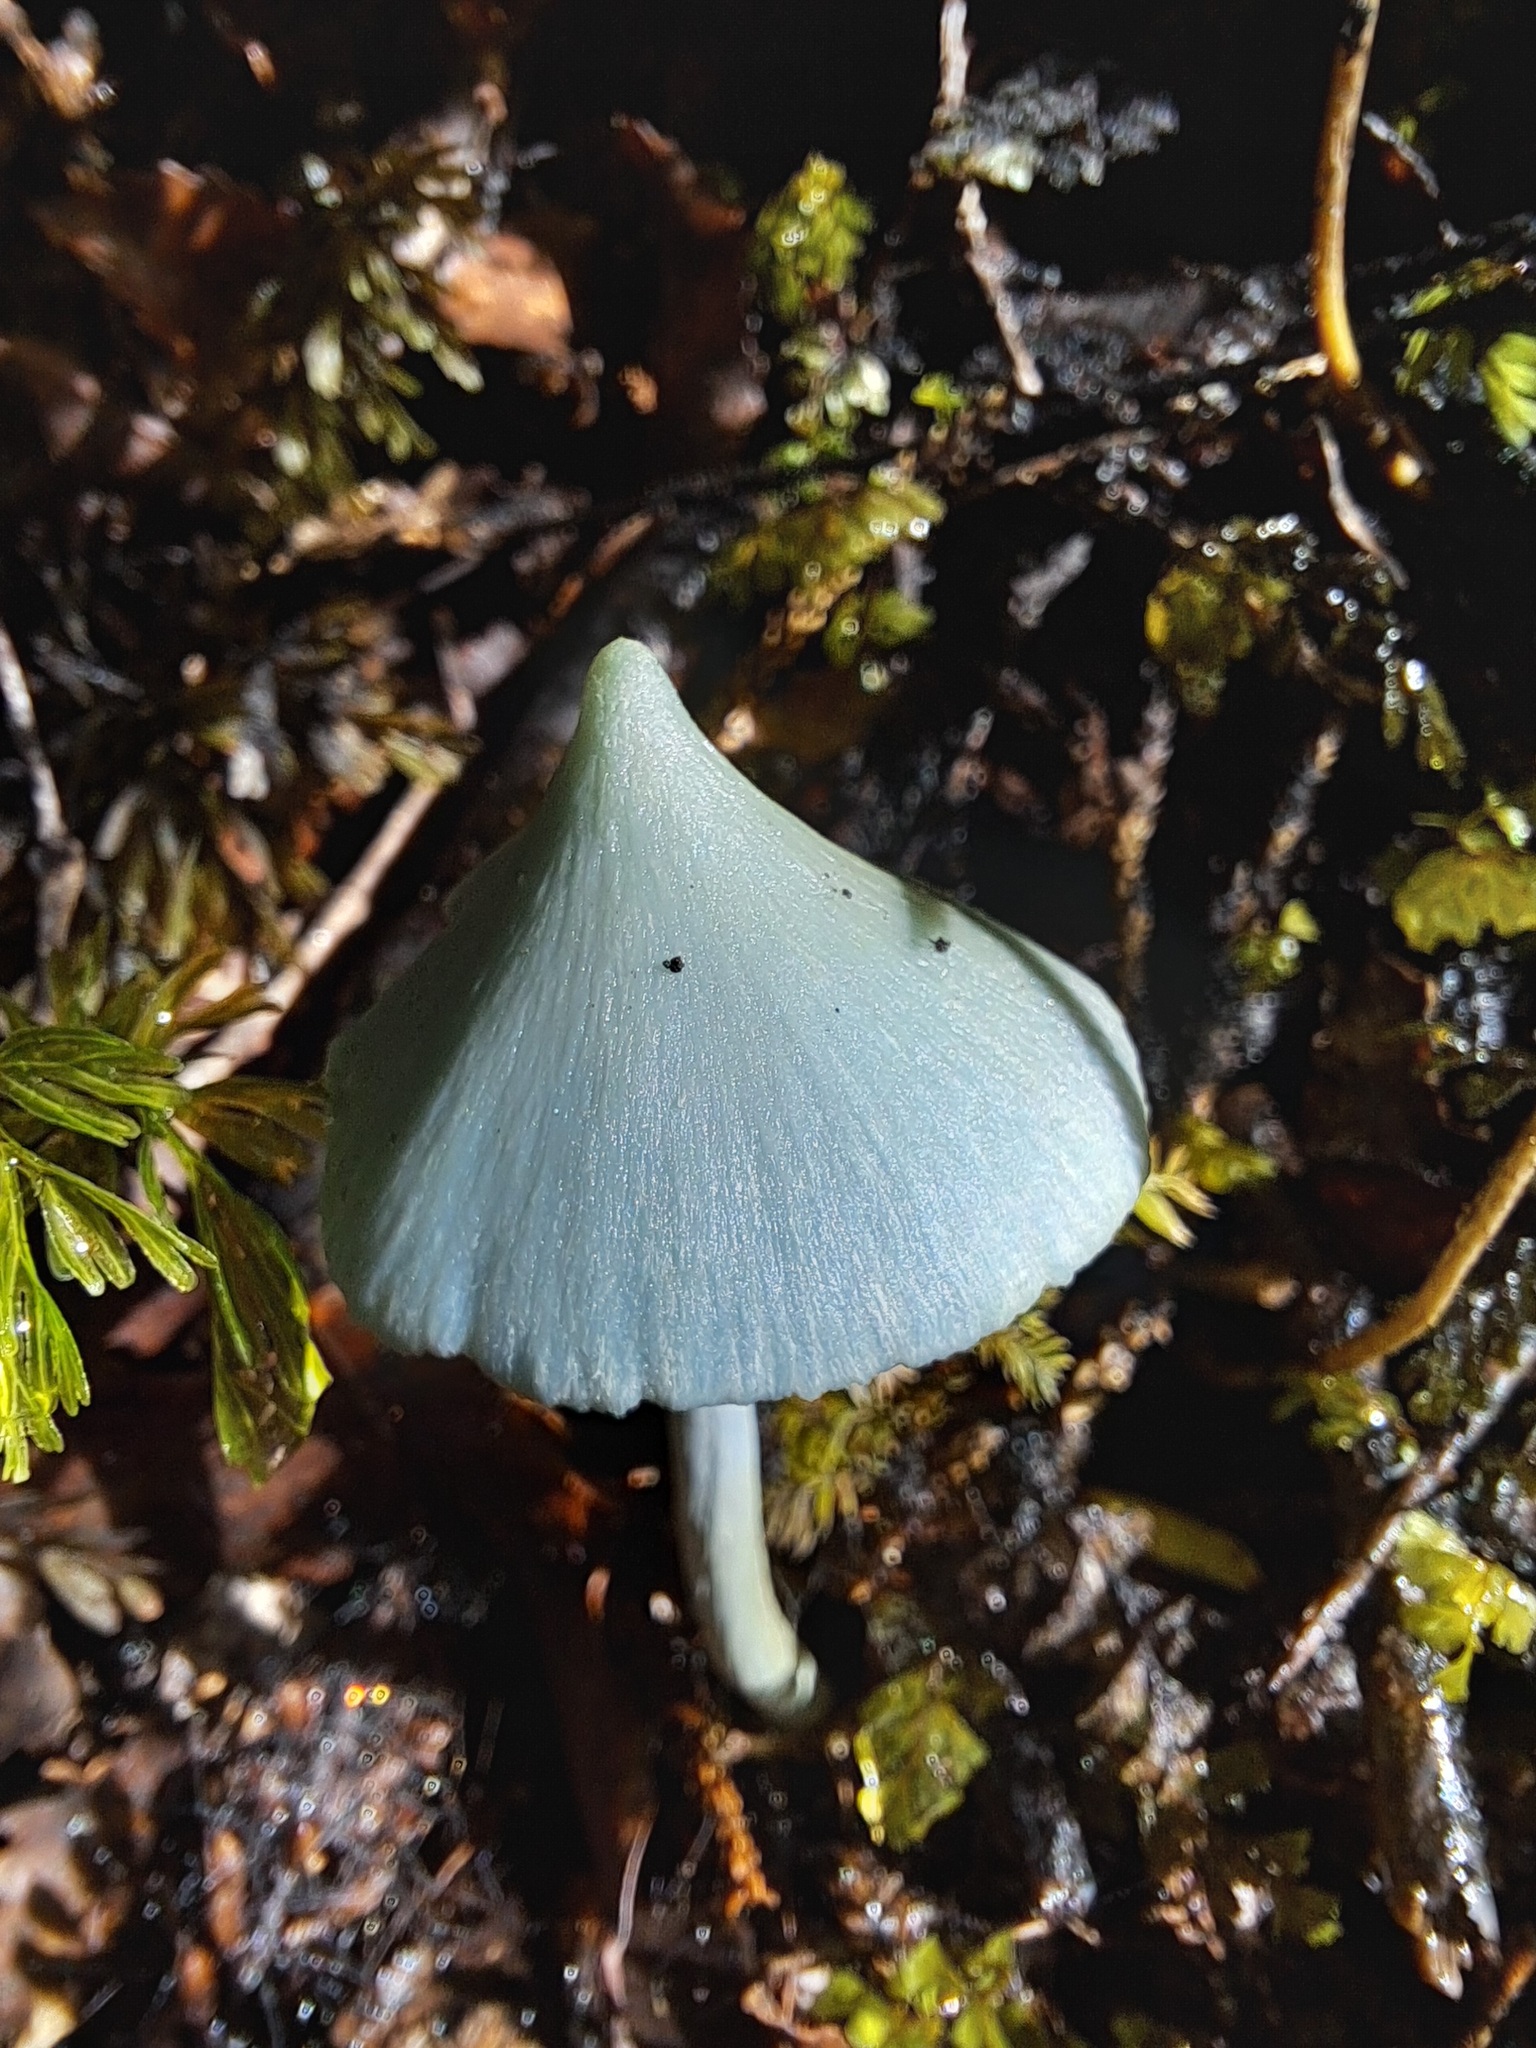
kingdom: Fungi
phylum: Basidiomycota
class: Agaricomycetes
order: Agaricales
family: Entolomataceae
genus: Entoloma
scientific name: Entoloma hochstetteri
